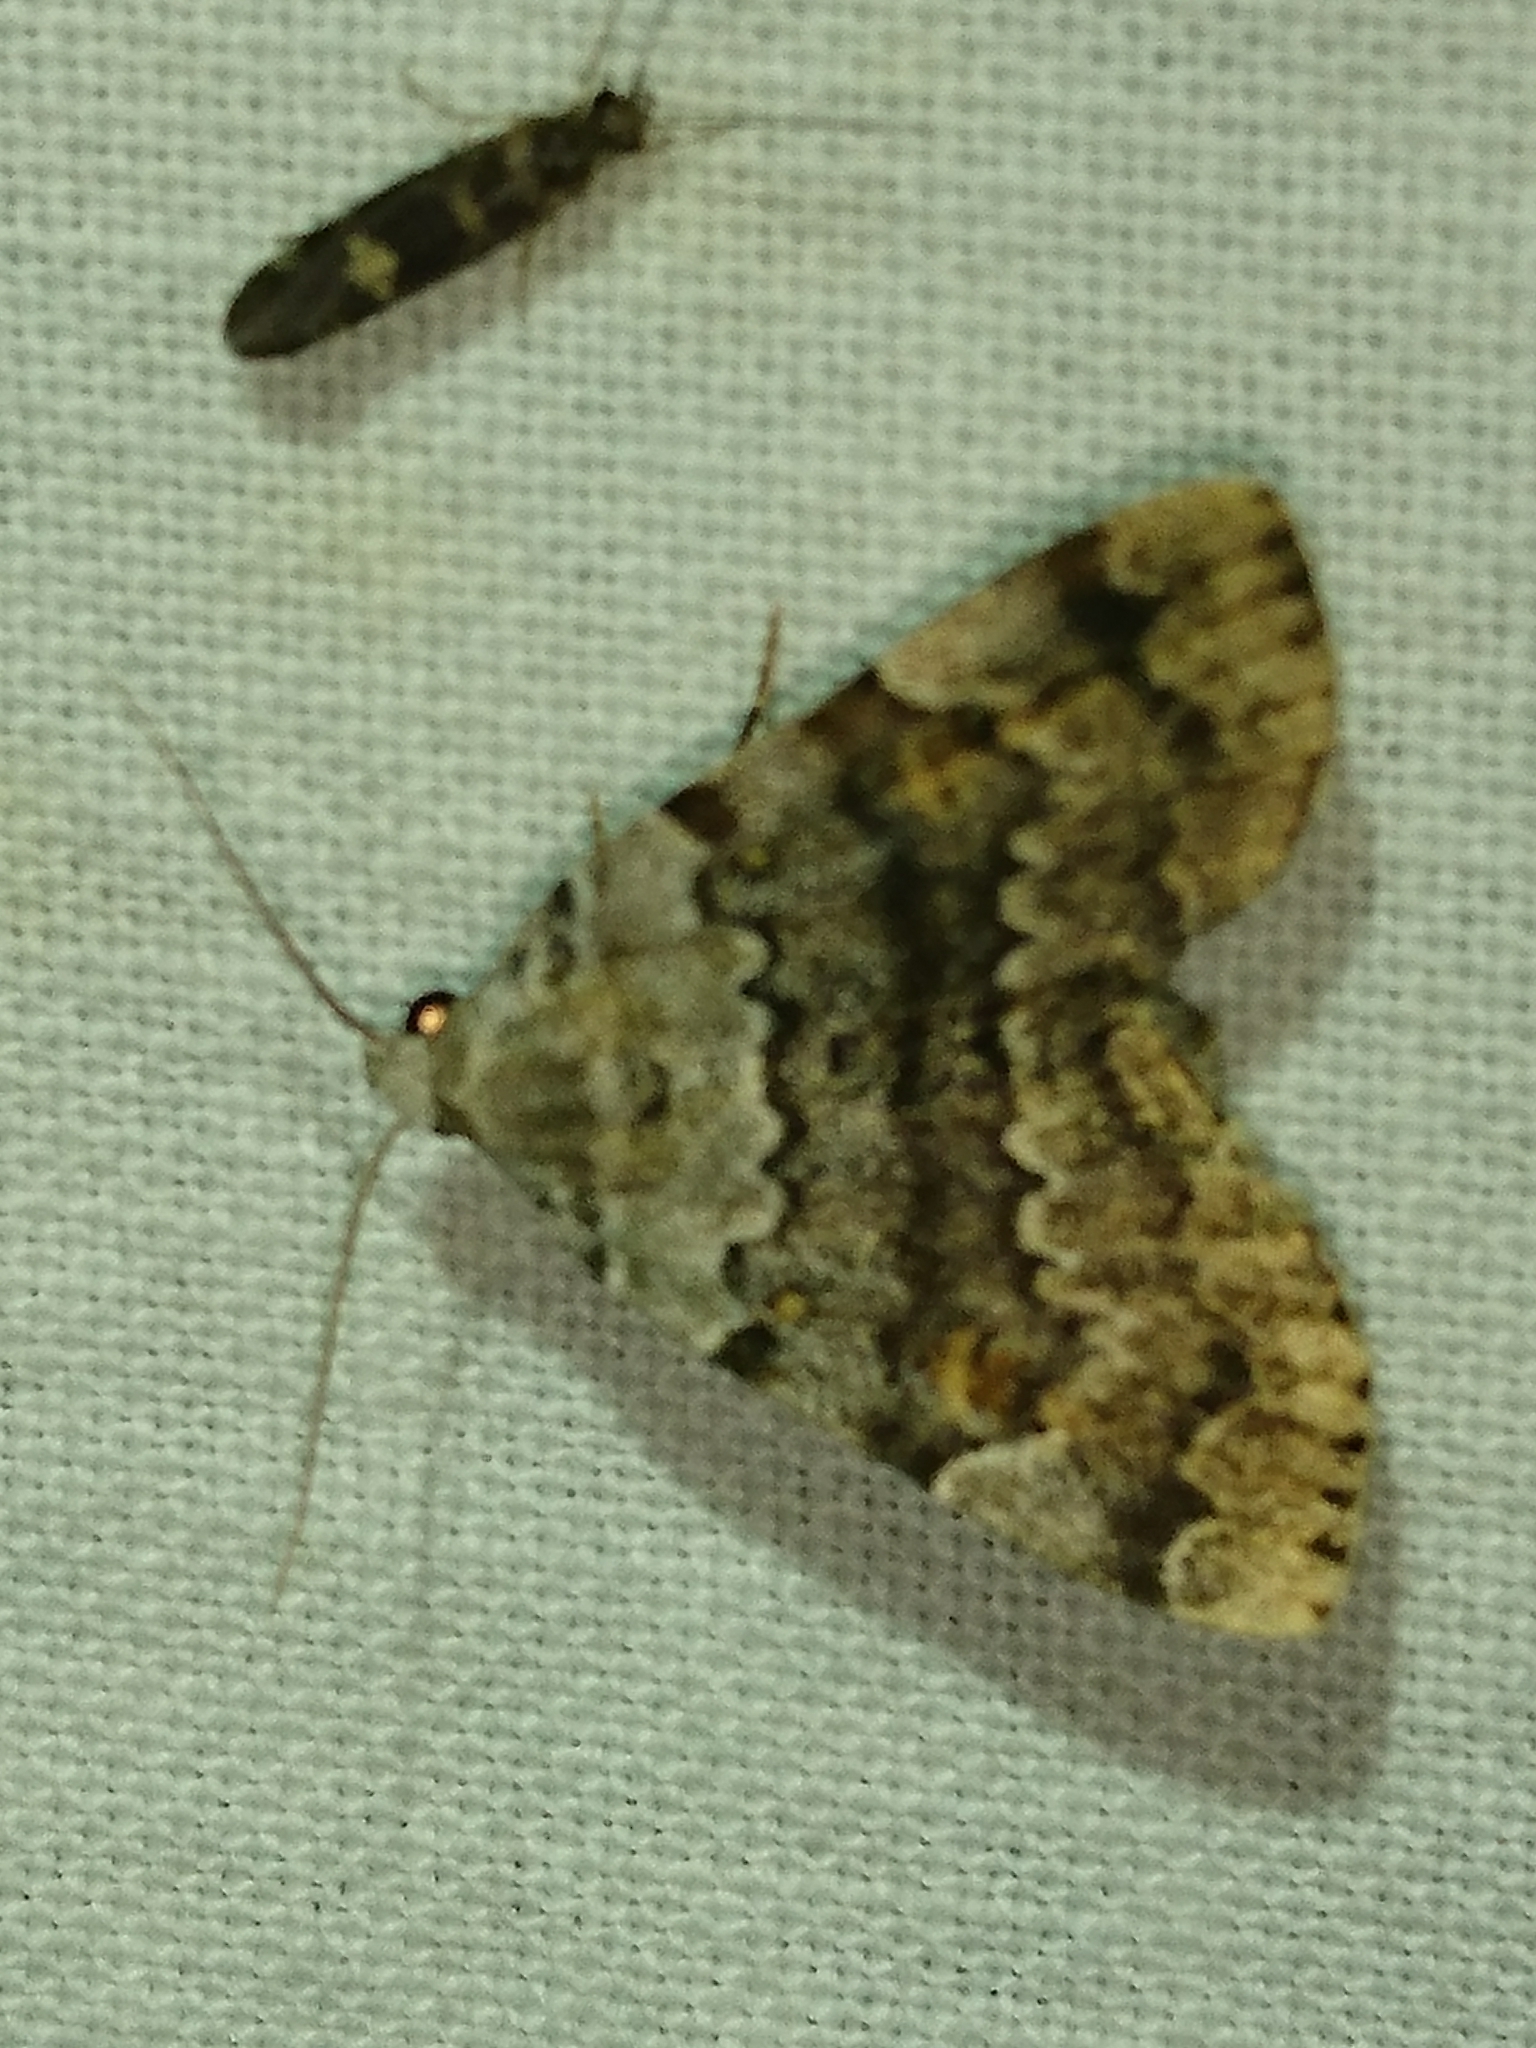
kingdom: Animalia
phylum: Arthropoda
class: Insecta
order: Lepidoptera
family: Erebidae
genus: Idia
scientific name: Idia americalis
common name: American idia moth
